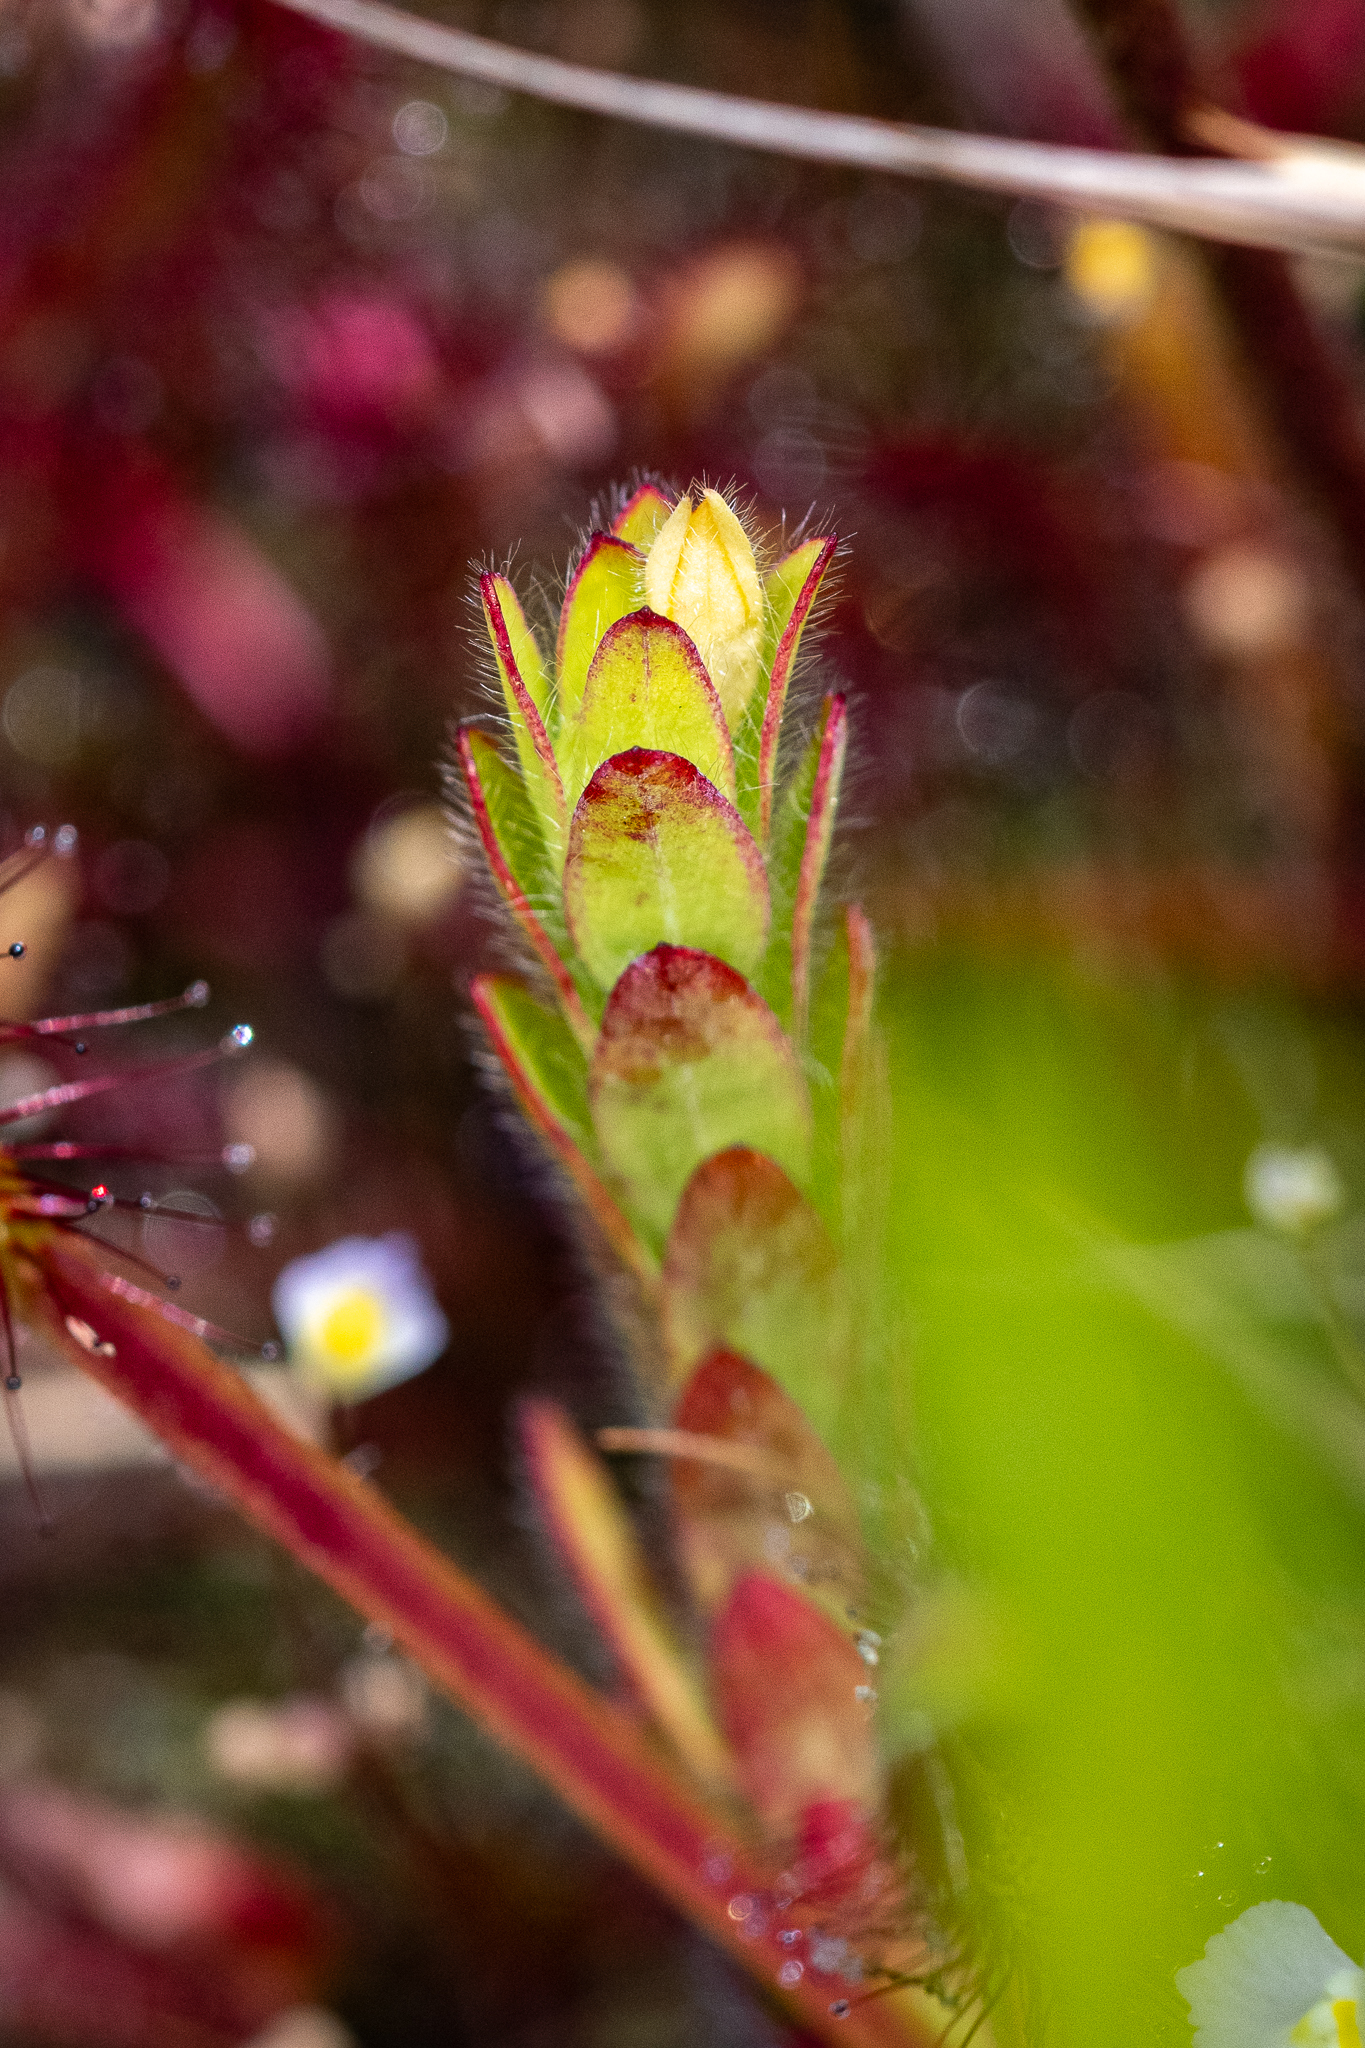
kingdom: Plantae
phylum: Tracheophyta
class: Magnoliopsida
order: Malvales
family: Thymelaeaceae
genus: Gnidia
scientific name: Gnidia humilis
